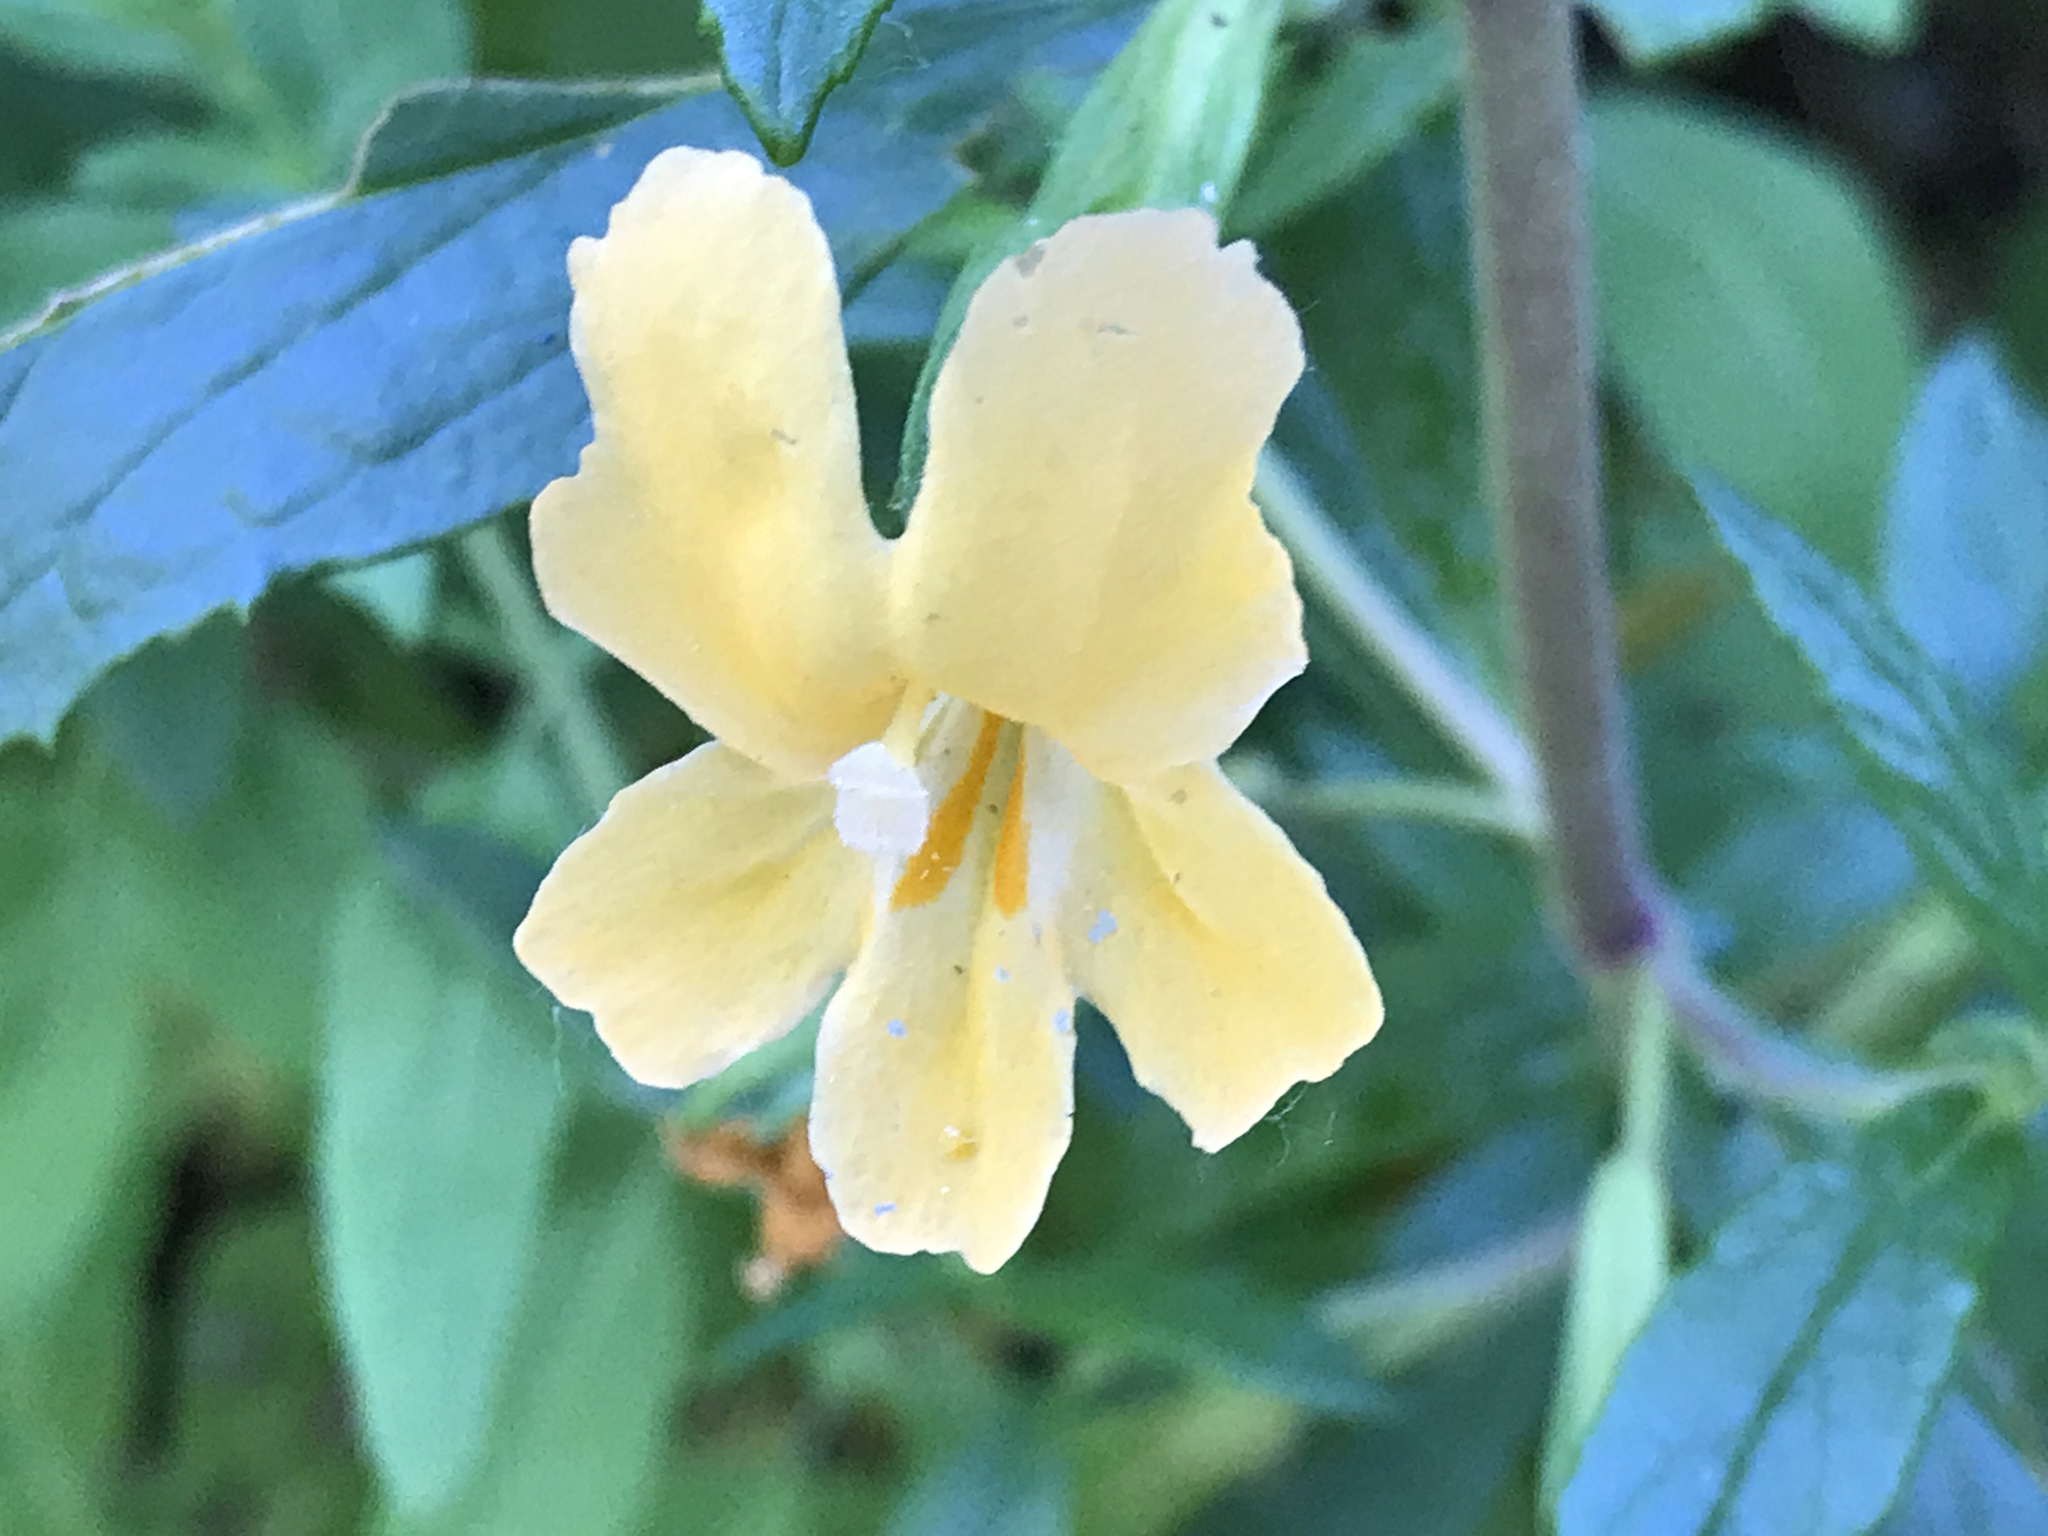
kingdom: Plantae
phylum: Tracheophyta
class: Magnoliopsida
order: Lamiales
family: Phrymaceae
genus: Diplacus
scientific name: Diplacus aurantiacus
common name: Bush monkey-flower
